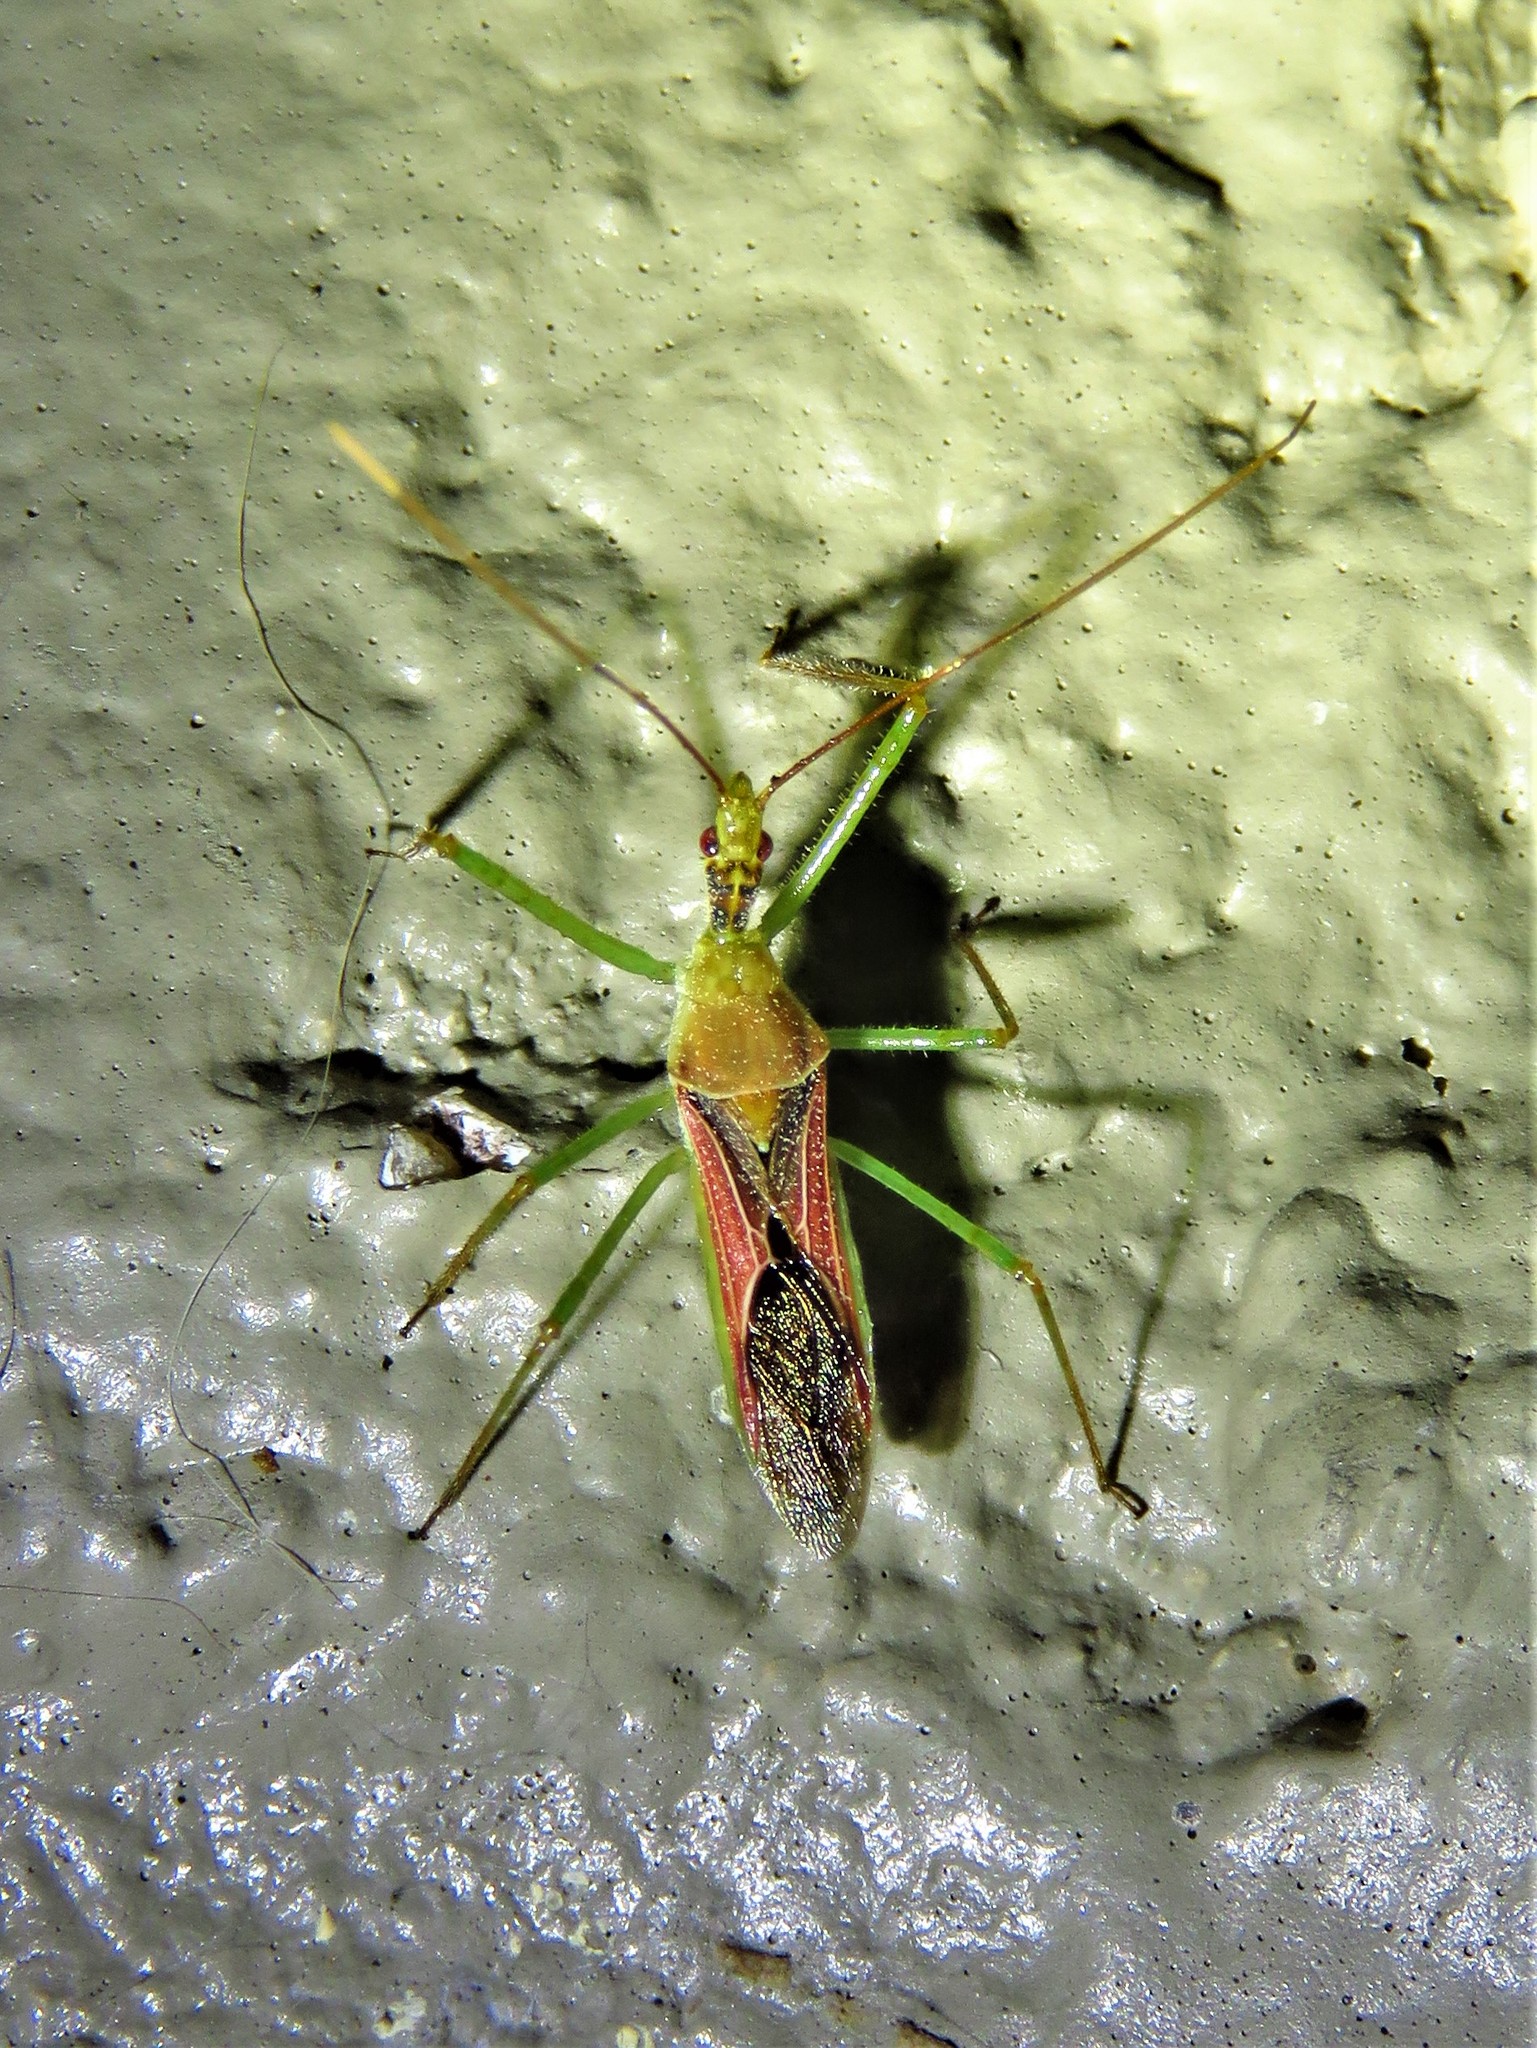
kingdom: Animalia
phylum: Arthropoda
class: Insecta
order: Hemiptera
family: Reduviidae
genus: Zelus
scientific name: Zelus renardii
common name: Assassin bug
